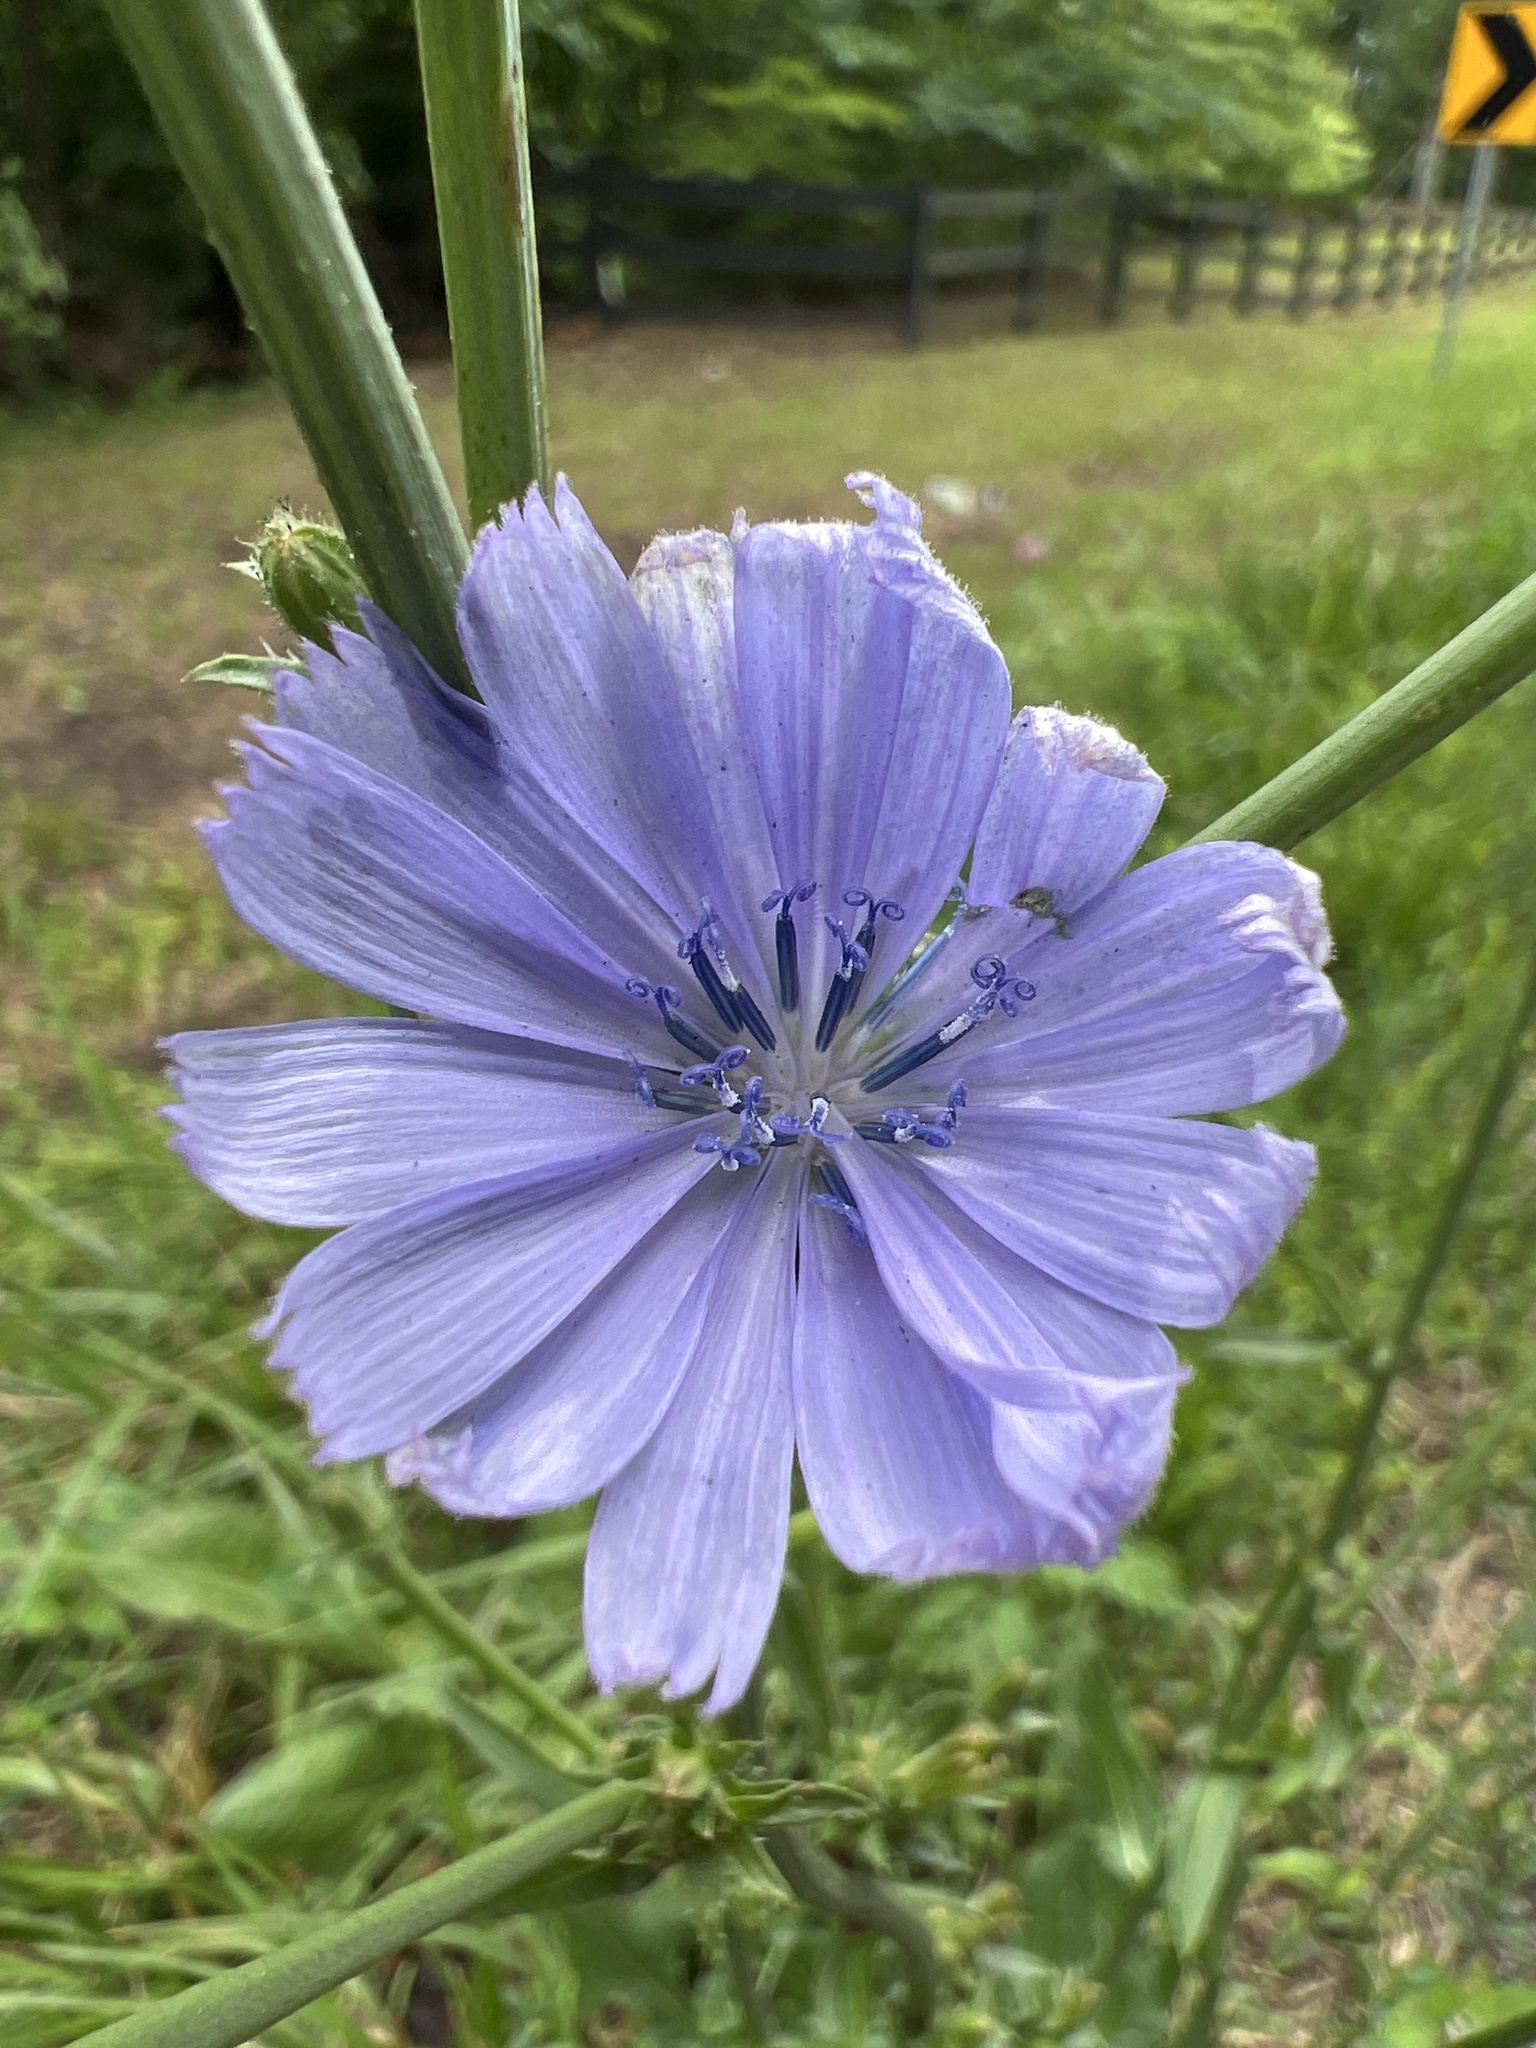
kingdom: Plantae
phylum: Tracheophyta
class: Magnoliopsida
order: Asterales
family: Asteraceae
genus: Cichorium
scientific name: Cichorium intybus
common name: Chicory
